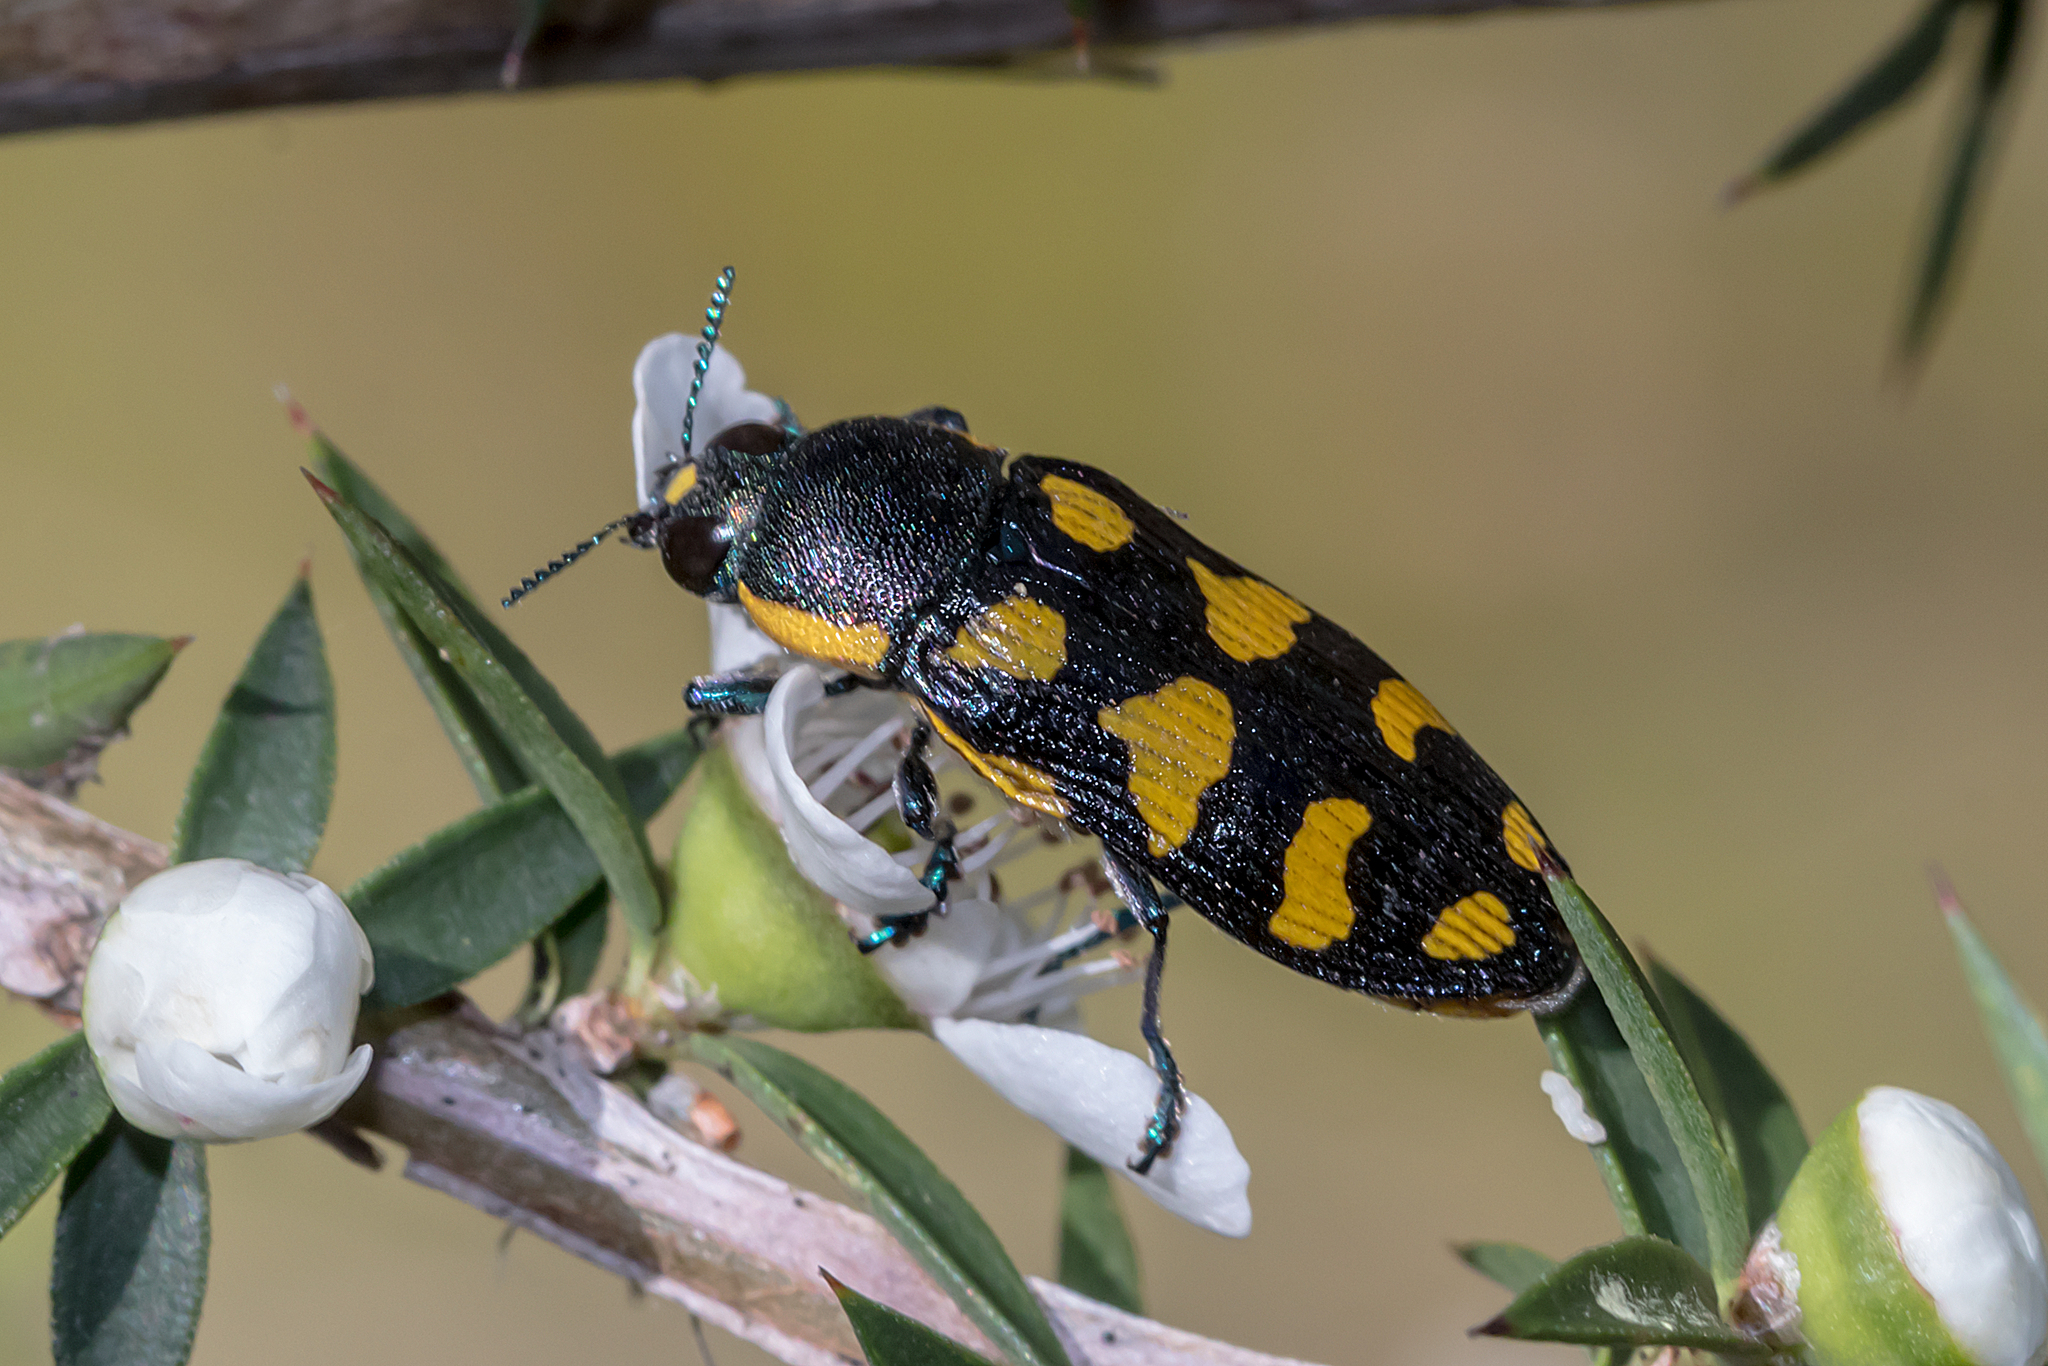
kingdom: Animalia
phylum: Arthropoda
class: Insecta
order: Coleoptera
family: Buprestidae
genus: Castiarina
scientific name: Castiarina octospilota
